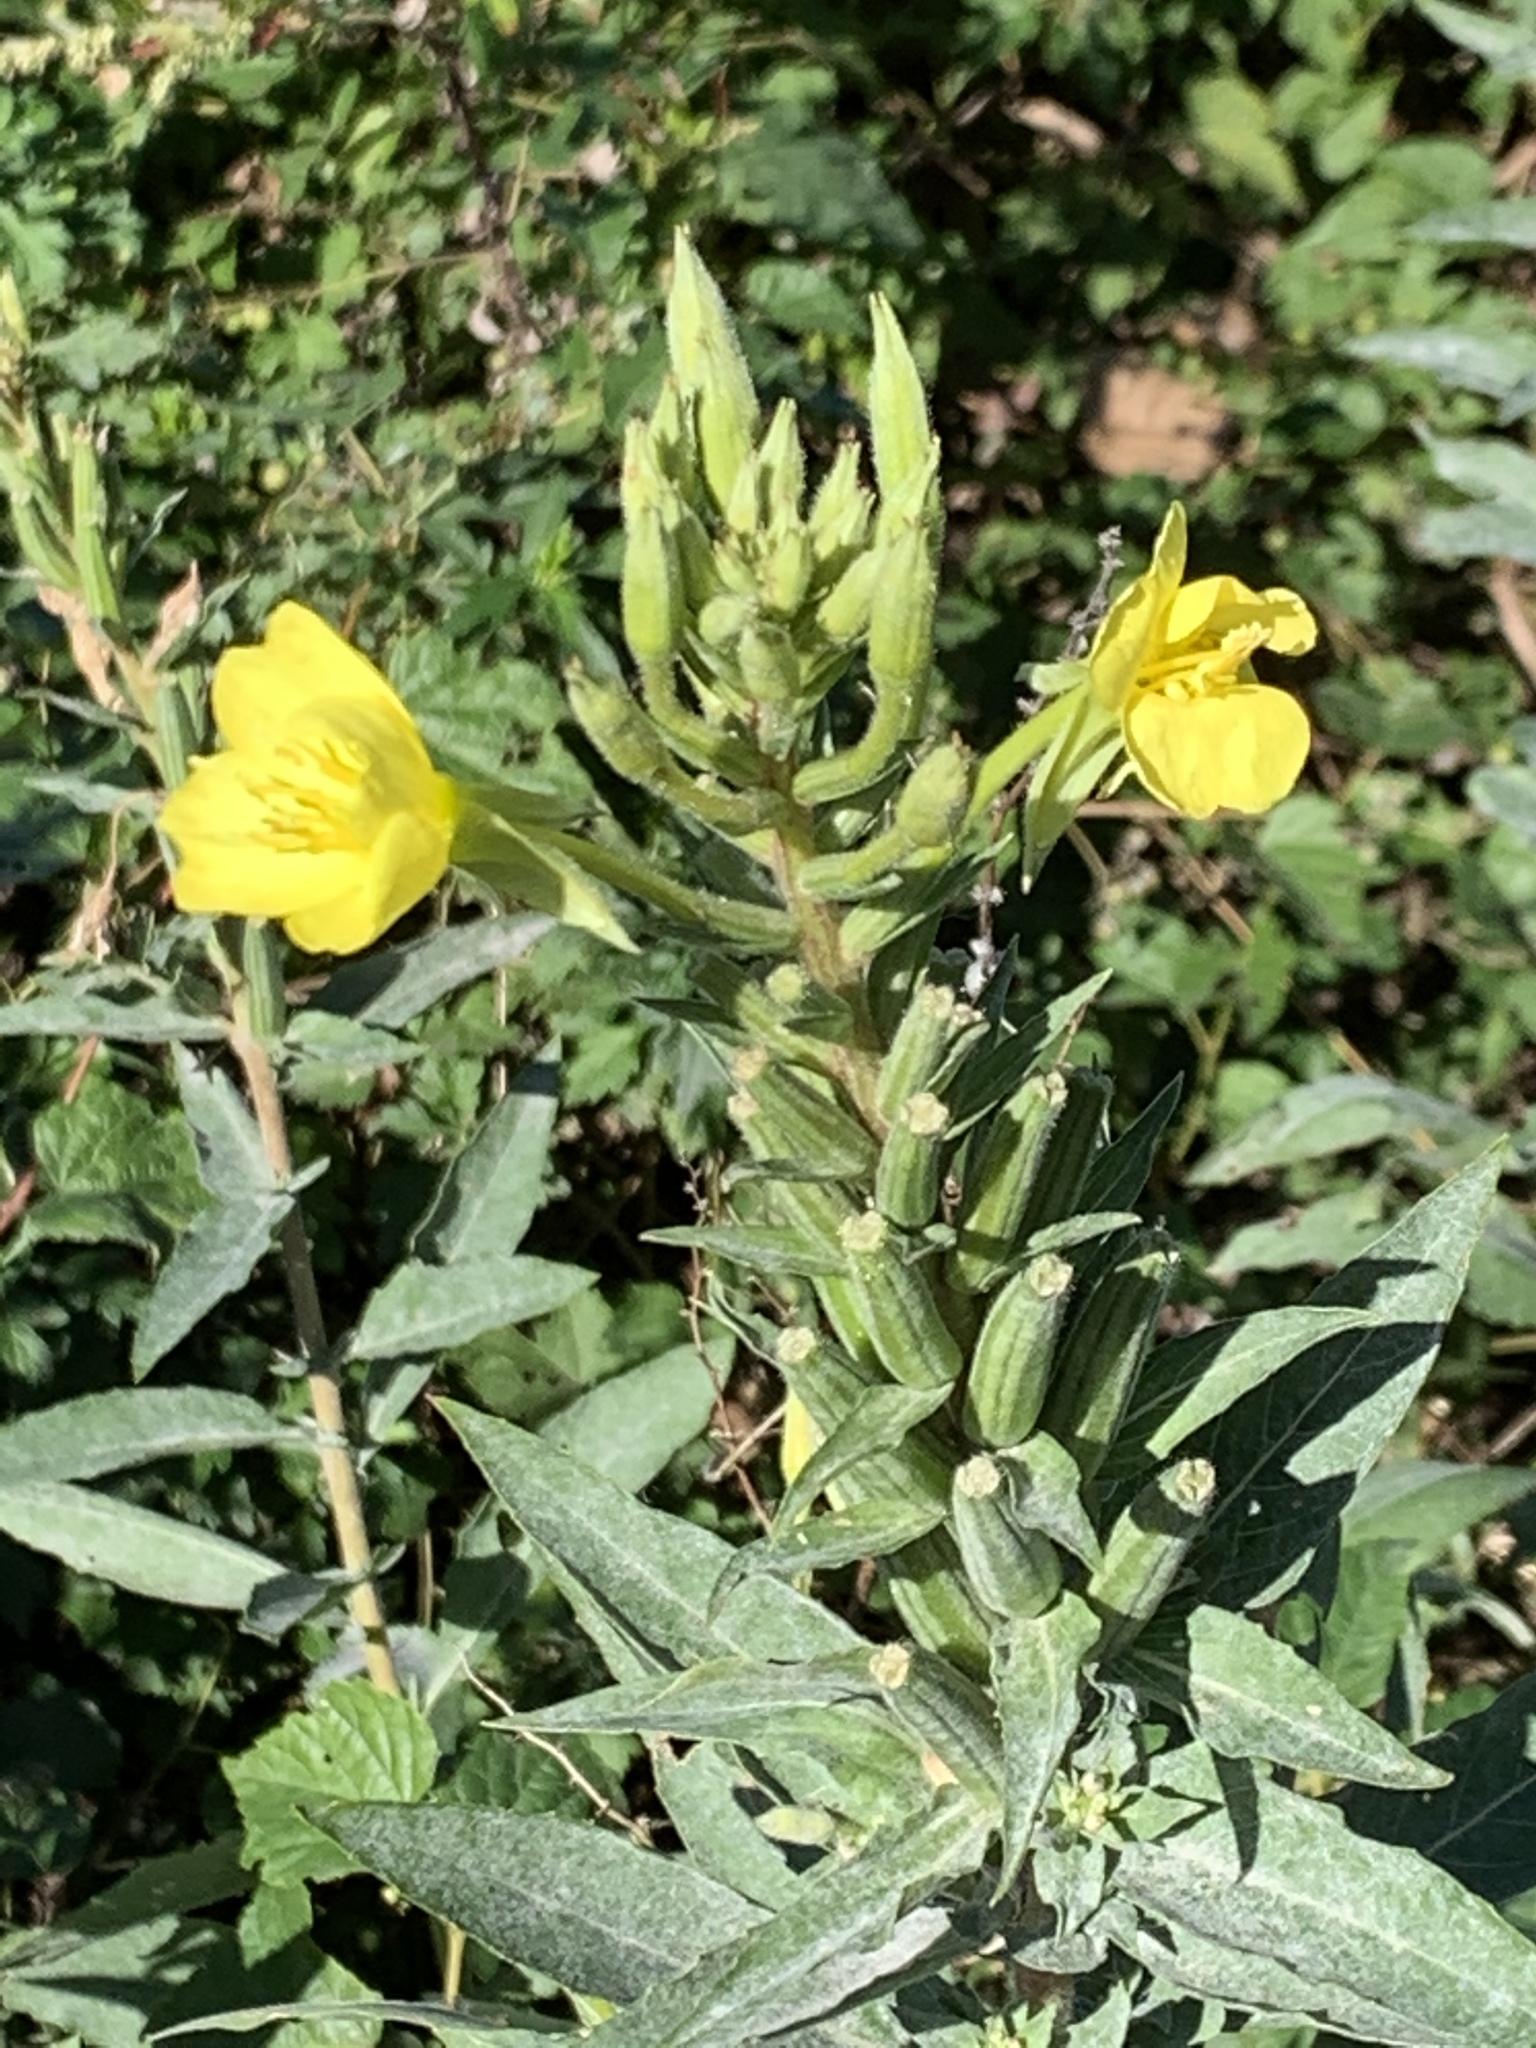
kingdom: Plantae
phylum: Tracheophyta
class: Magnoliopsida
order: Myrtales
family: Onagraceae
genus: Oenothera
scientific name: Oenothera biennis
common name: Common evening-primrose
